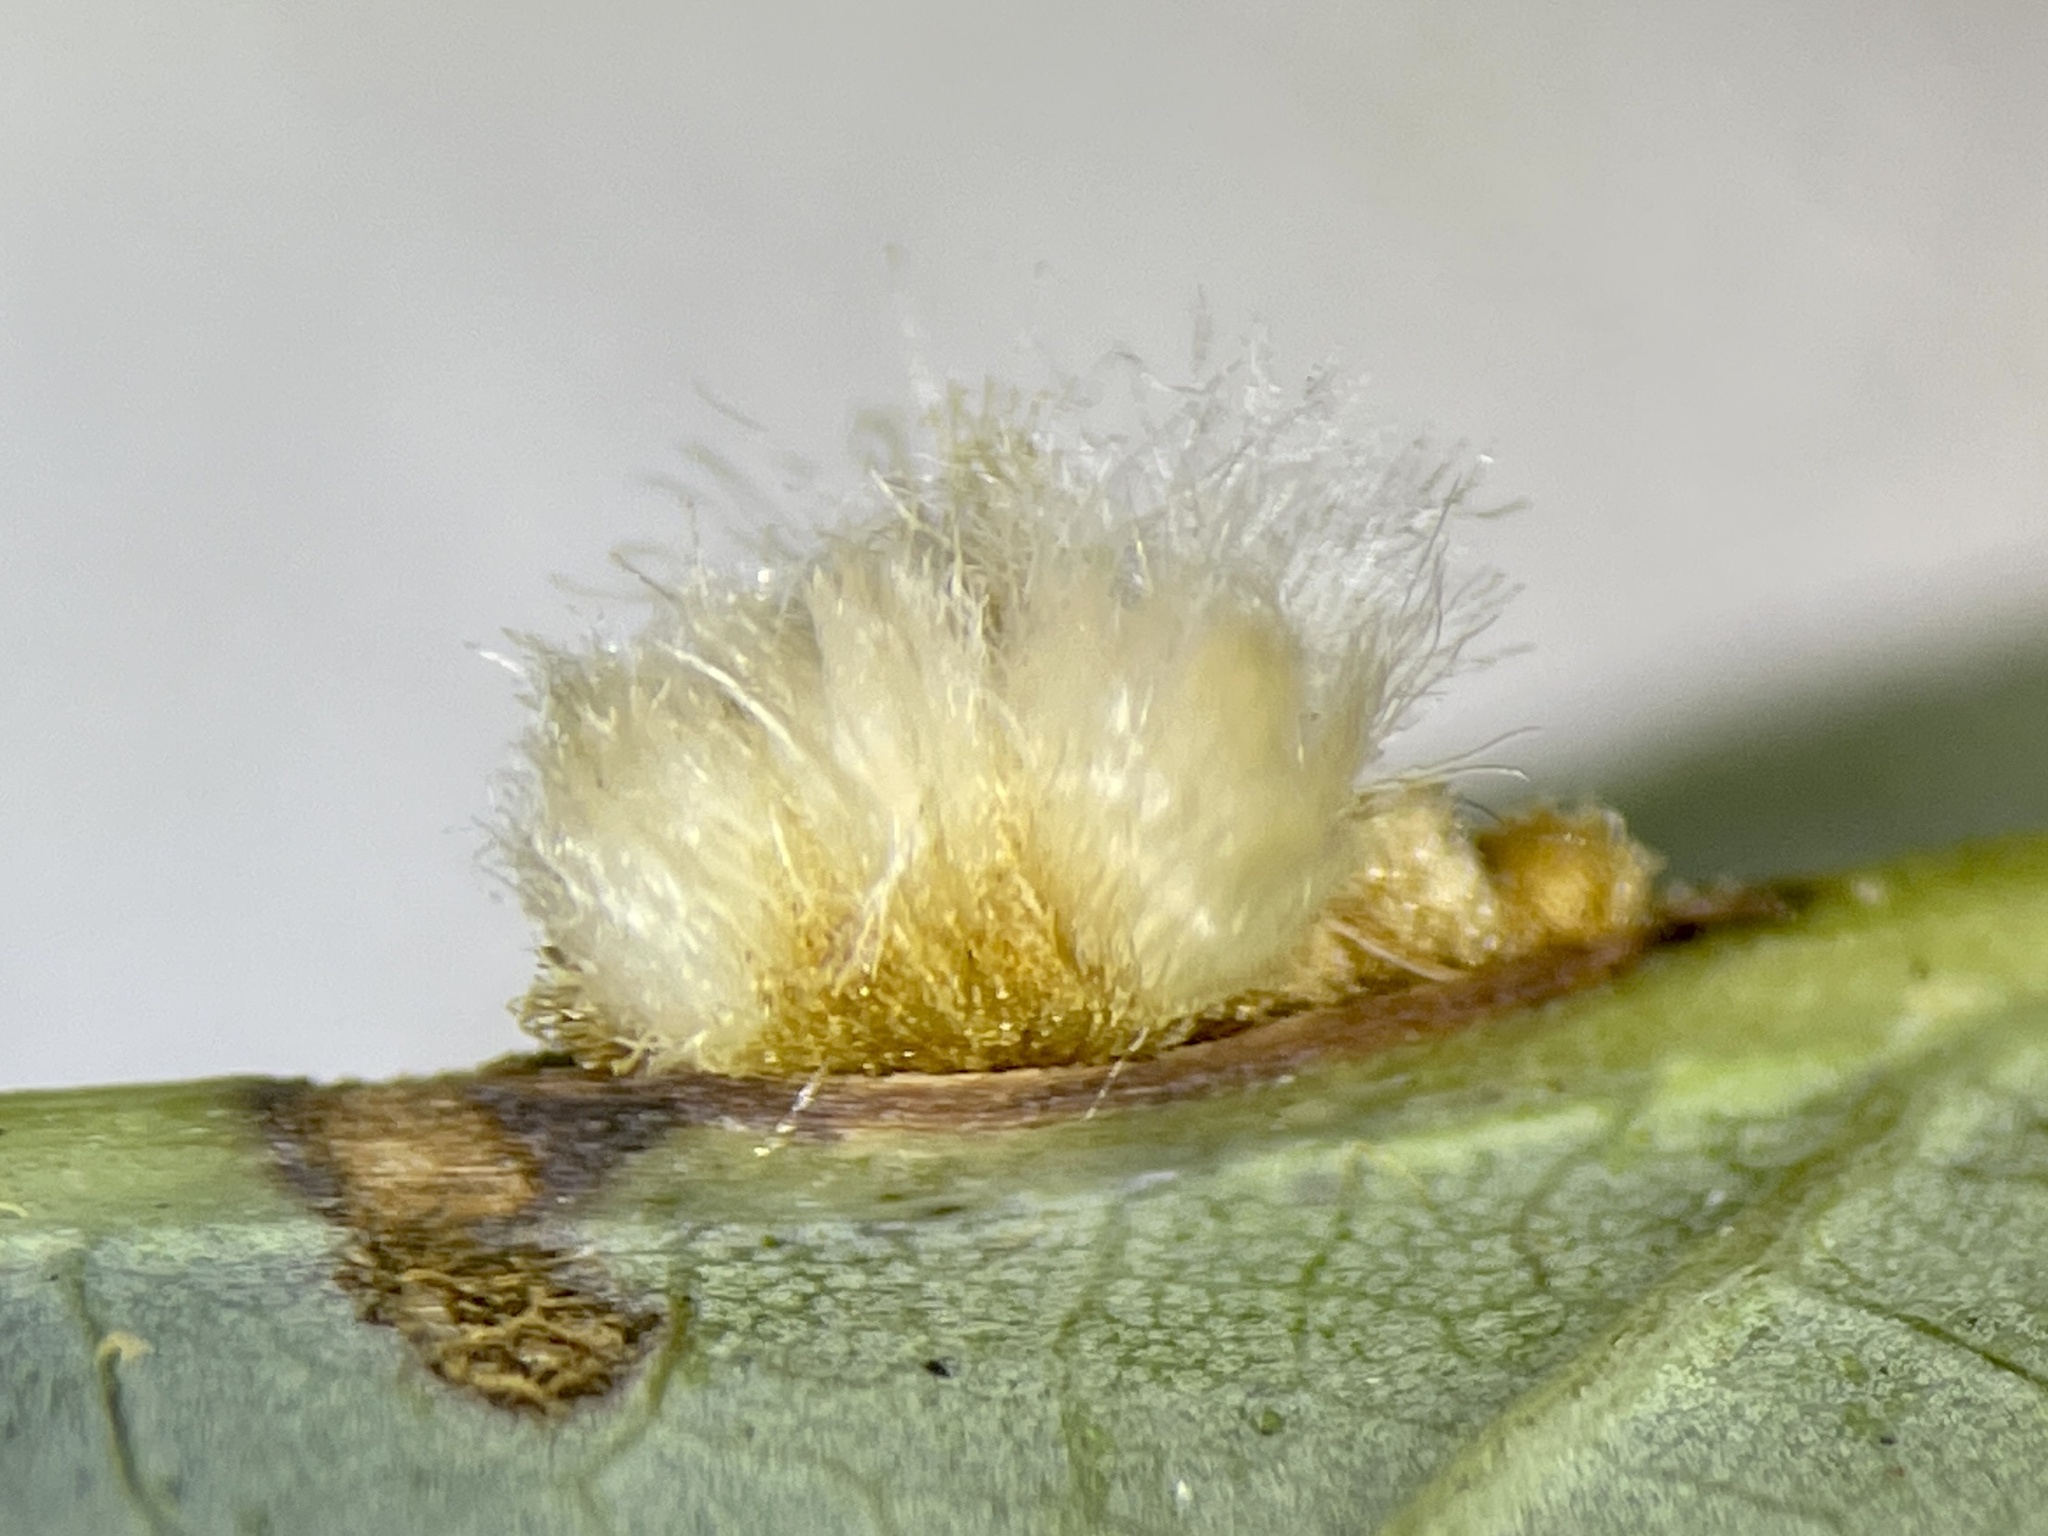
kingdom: Animalia
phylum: Arthropoda
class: Insecta
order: Hymenoptera
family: Cynipidae
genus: Andricus
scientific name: Andricus quercusflocci
